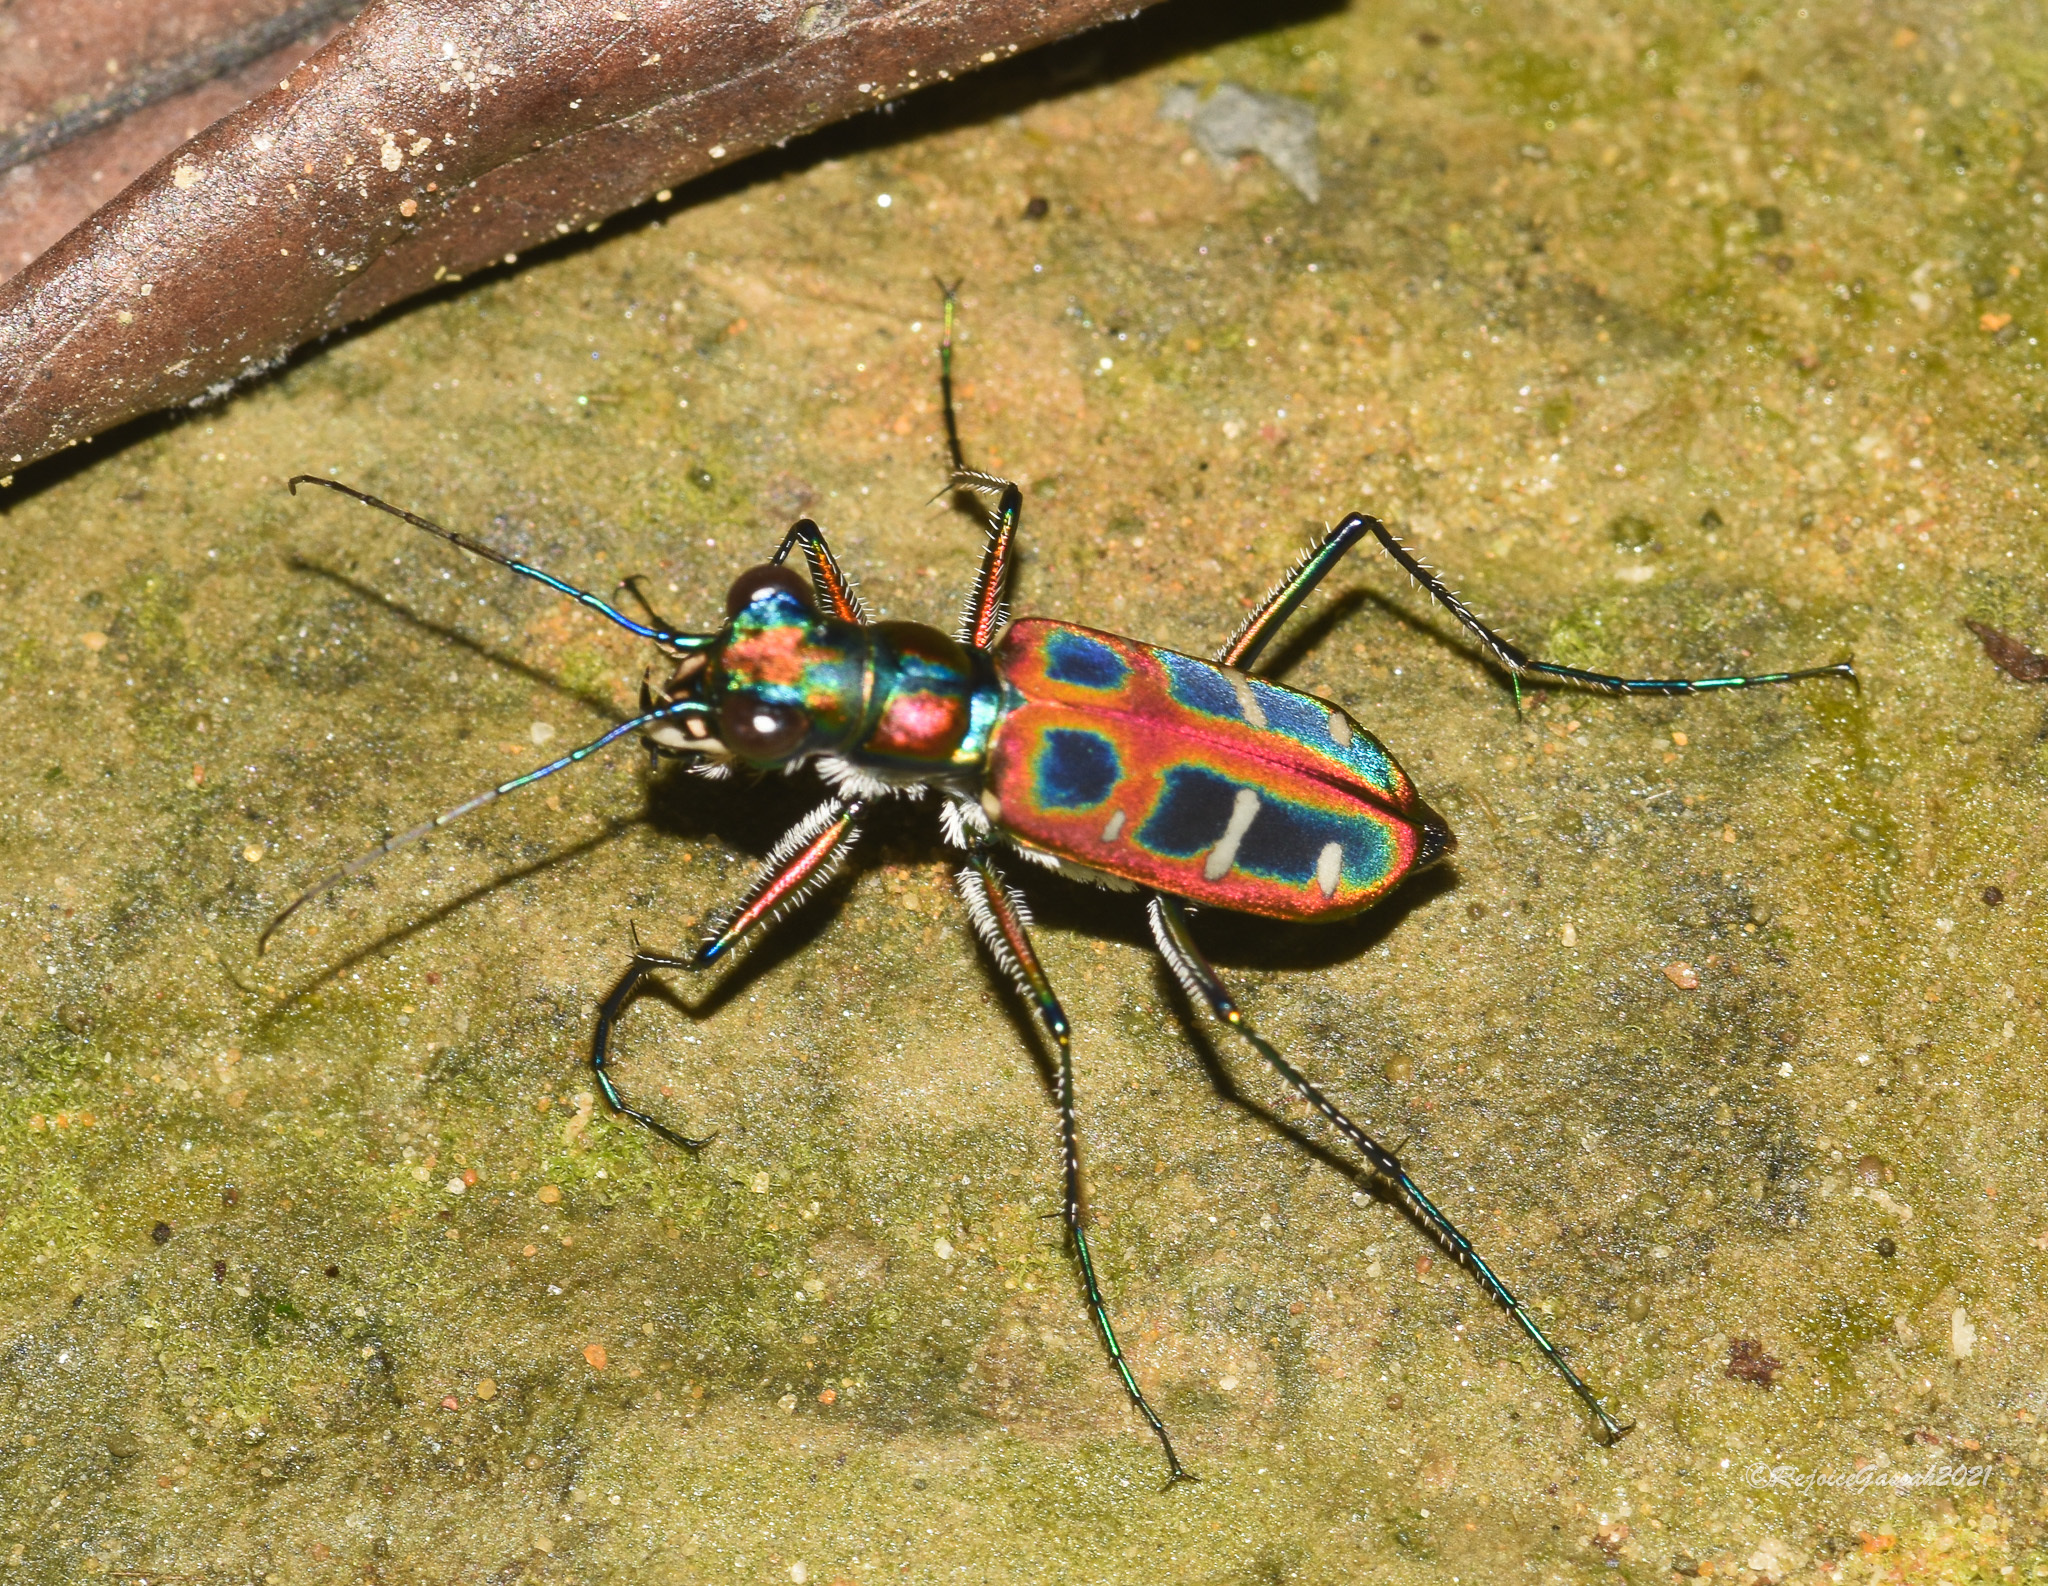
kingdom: Animalia
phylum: Arthropoda
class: Insecta
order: Coleoptera
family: Carabidae
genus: Cicindela
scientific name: Cicindela barmanica
